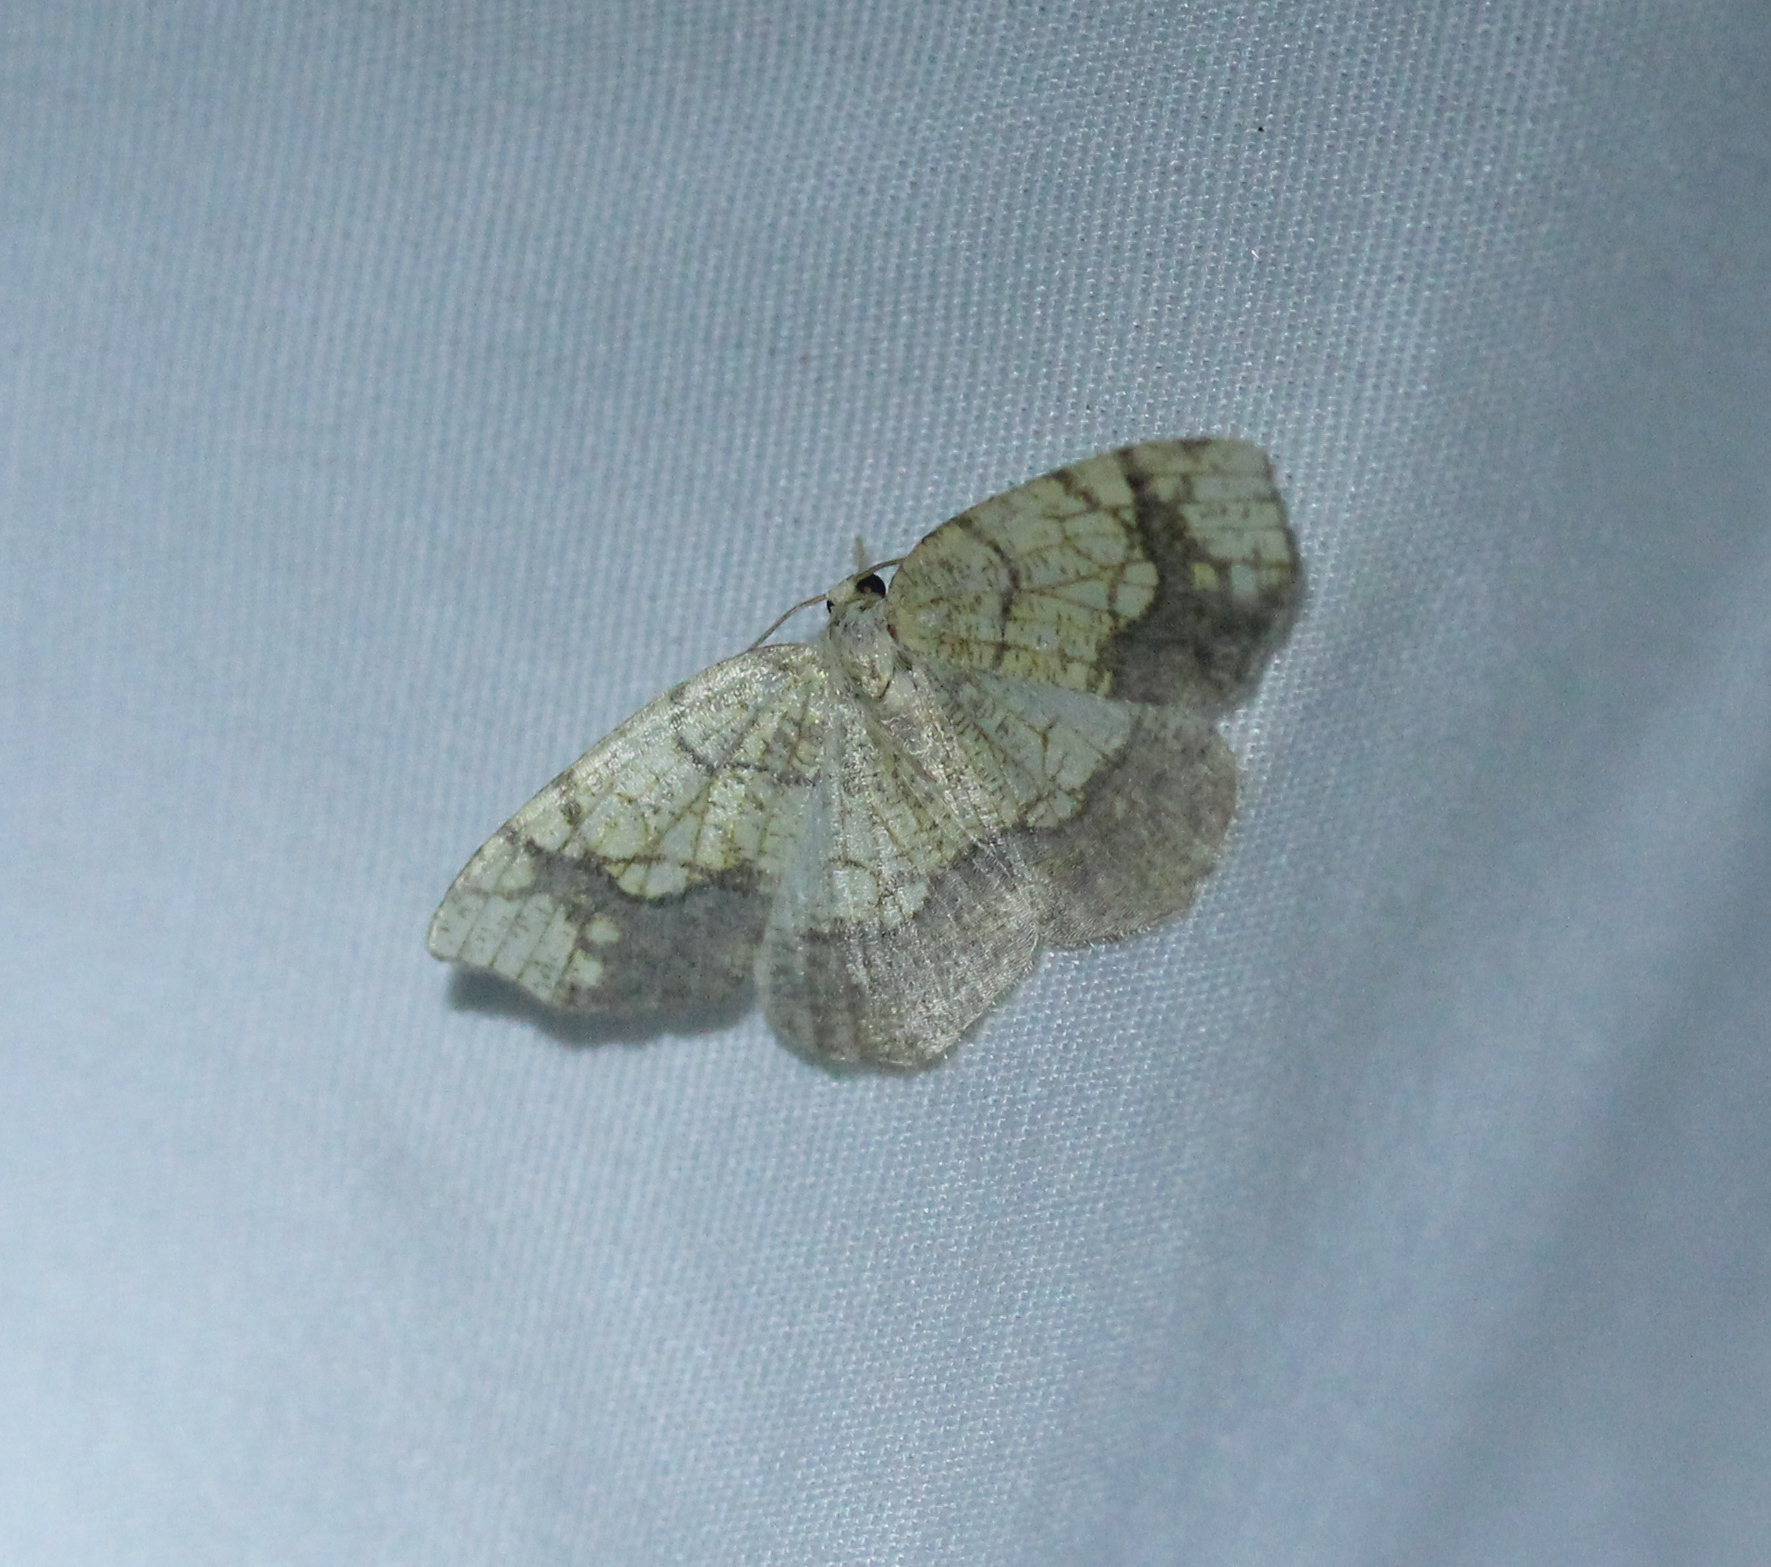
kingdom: Animalia
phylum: Arthropoda
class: Insecta
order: Lepidoptera
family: Geometridae
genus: Nematocampa
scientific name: Nematocampa resistaria
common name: Horned spanworm moth
